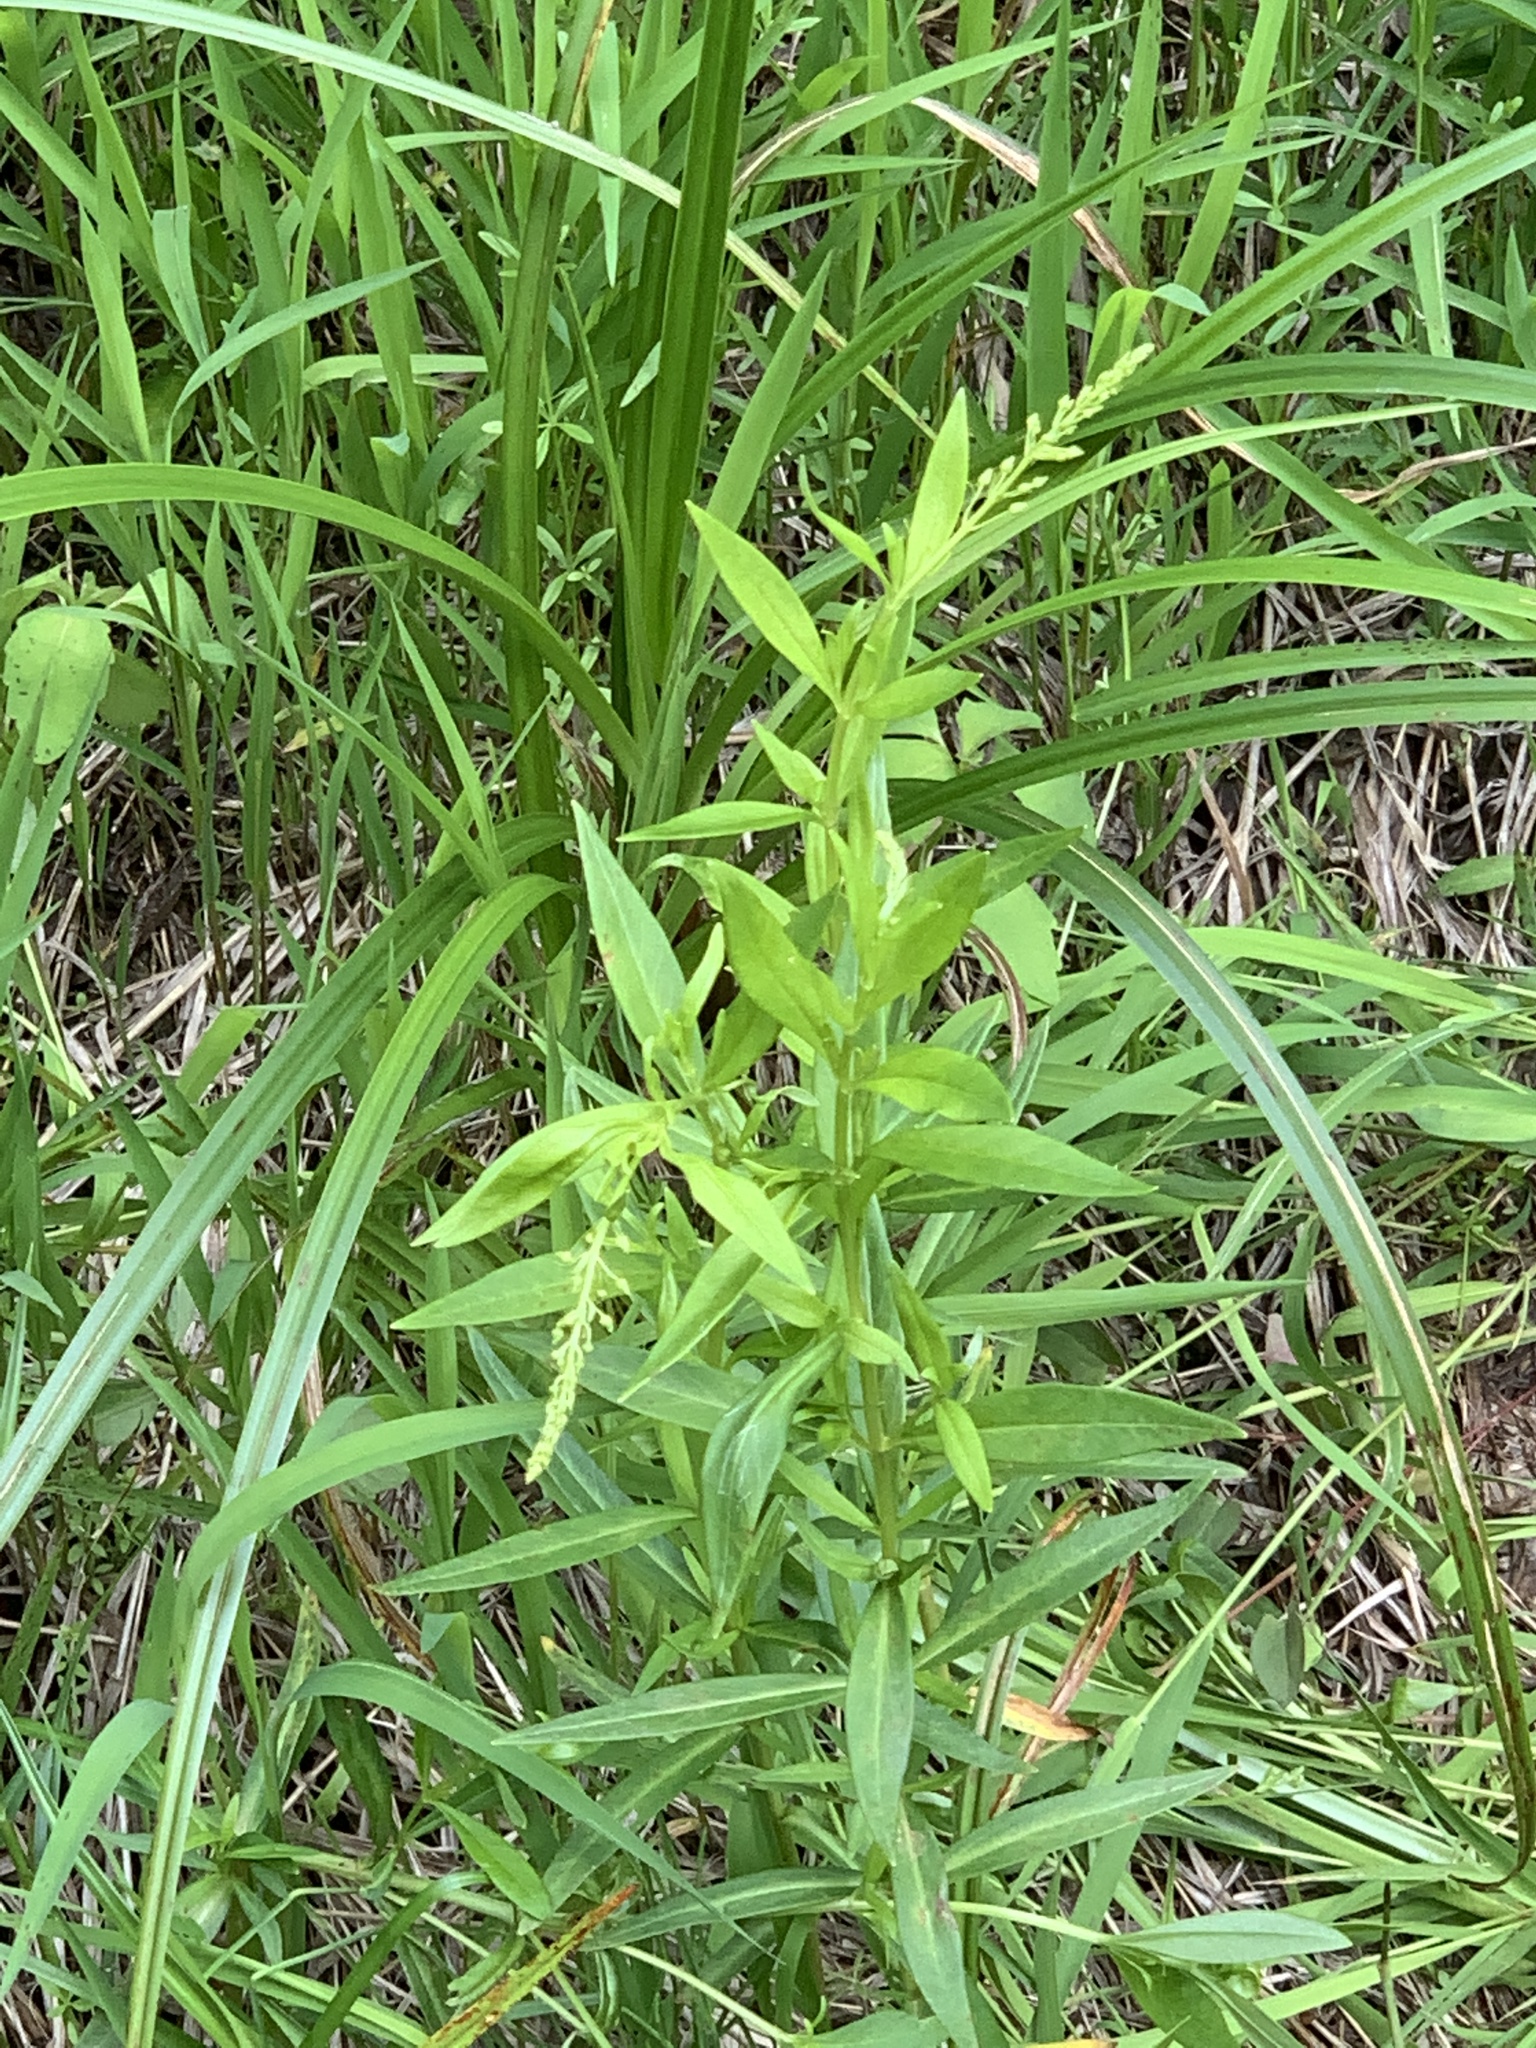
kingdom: Plantae
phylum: Tracheophyta
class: Magnoliopsida
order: Ericales
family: Primulaceae
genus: Lysimachia
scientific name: Lysimachia terrestris
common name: Lake loosestrife
